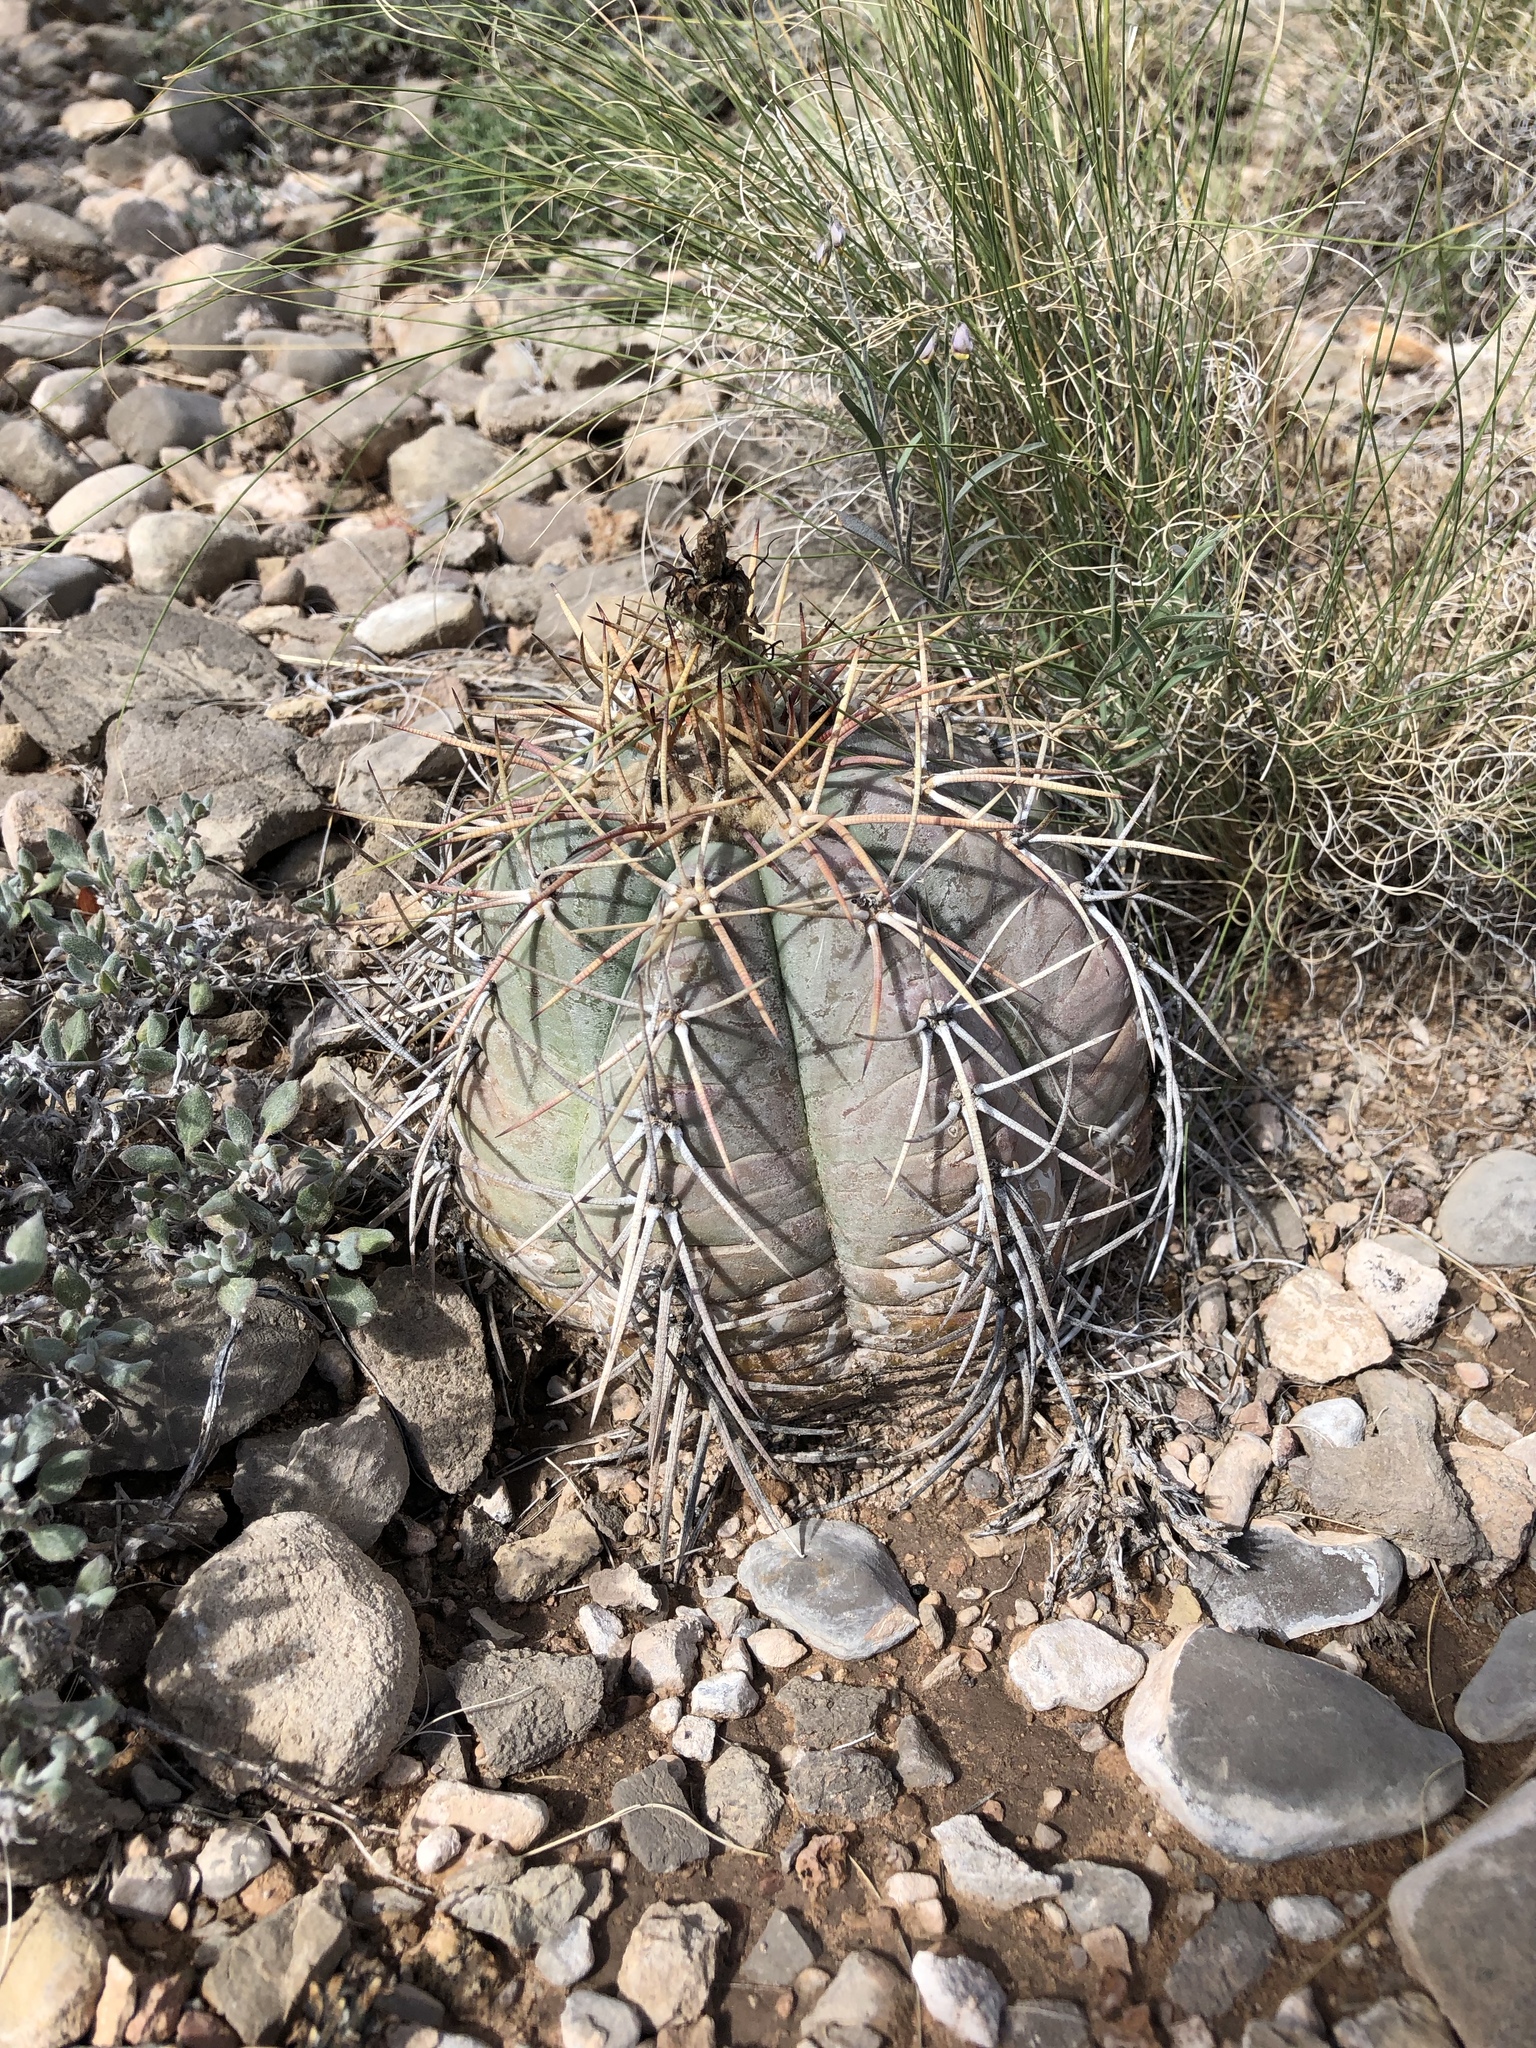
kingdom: Plantae
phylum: Tracheophyta
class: Magnoliopsida
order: Caryophyllales
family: Cactaceae
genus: Echinocactus
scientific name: Echinocactus horizonthalonius
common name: Devilshead
